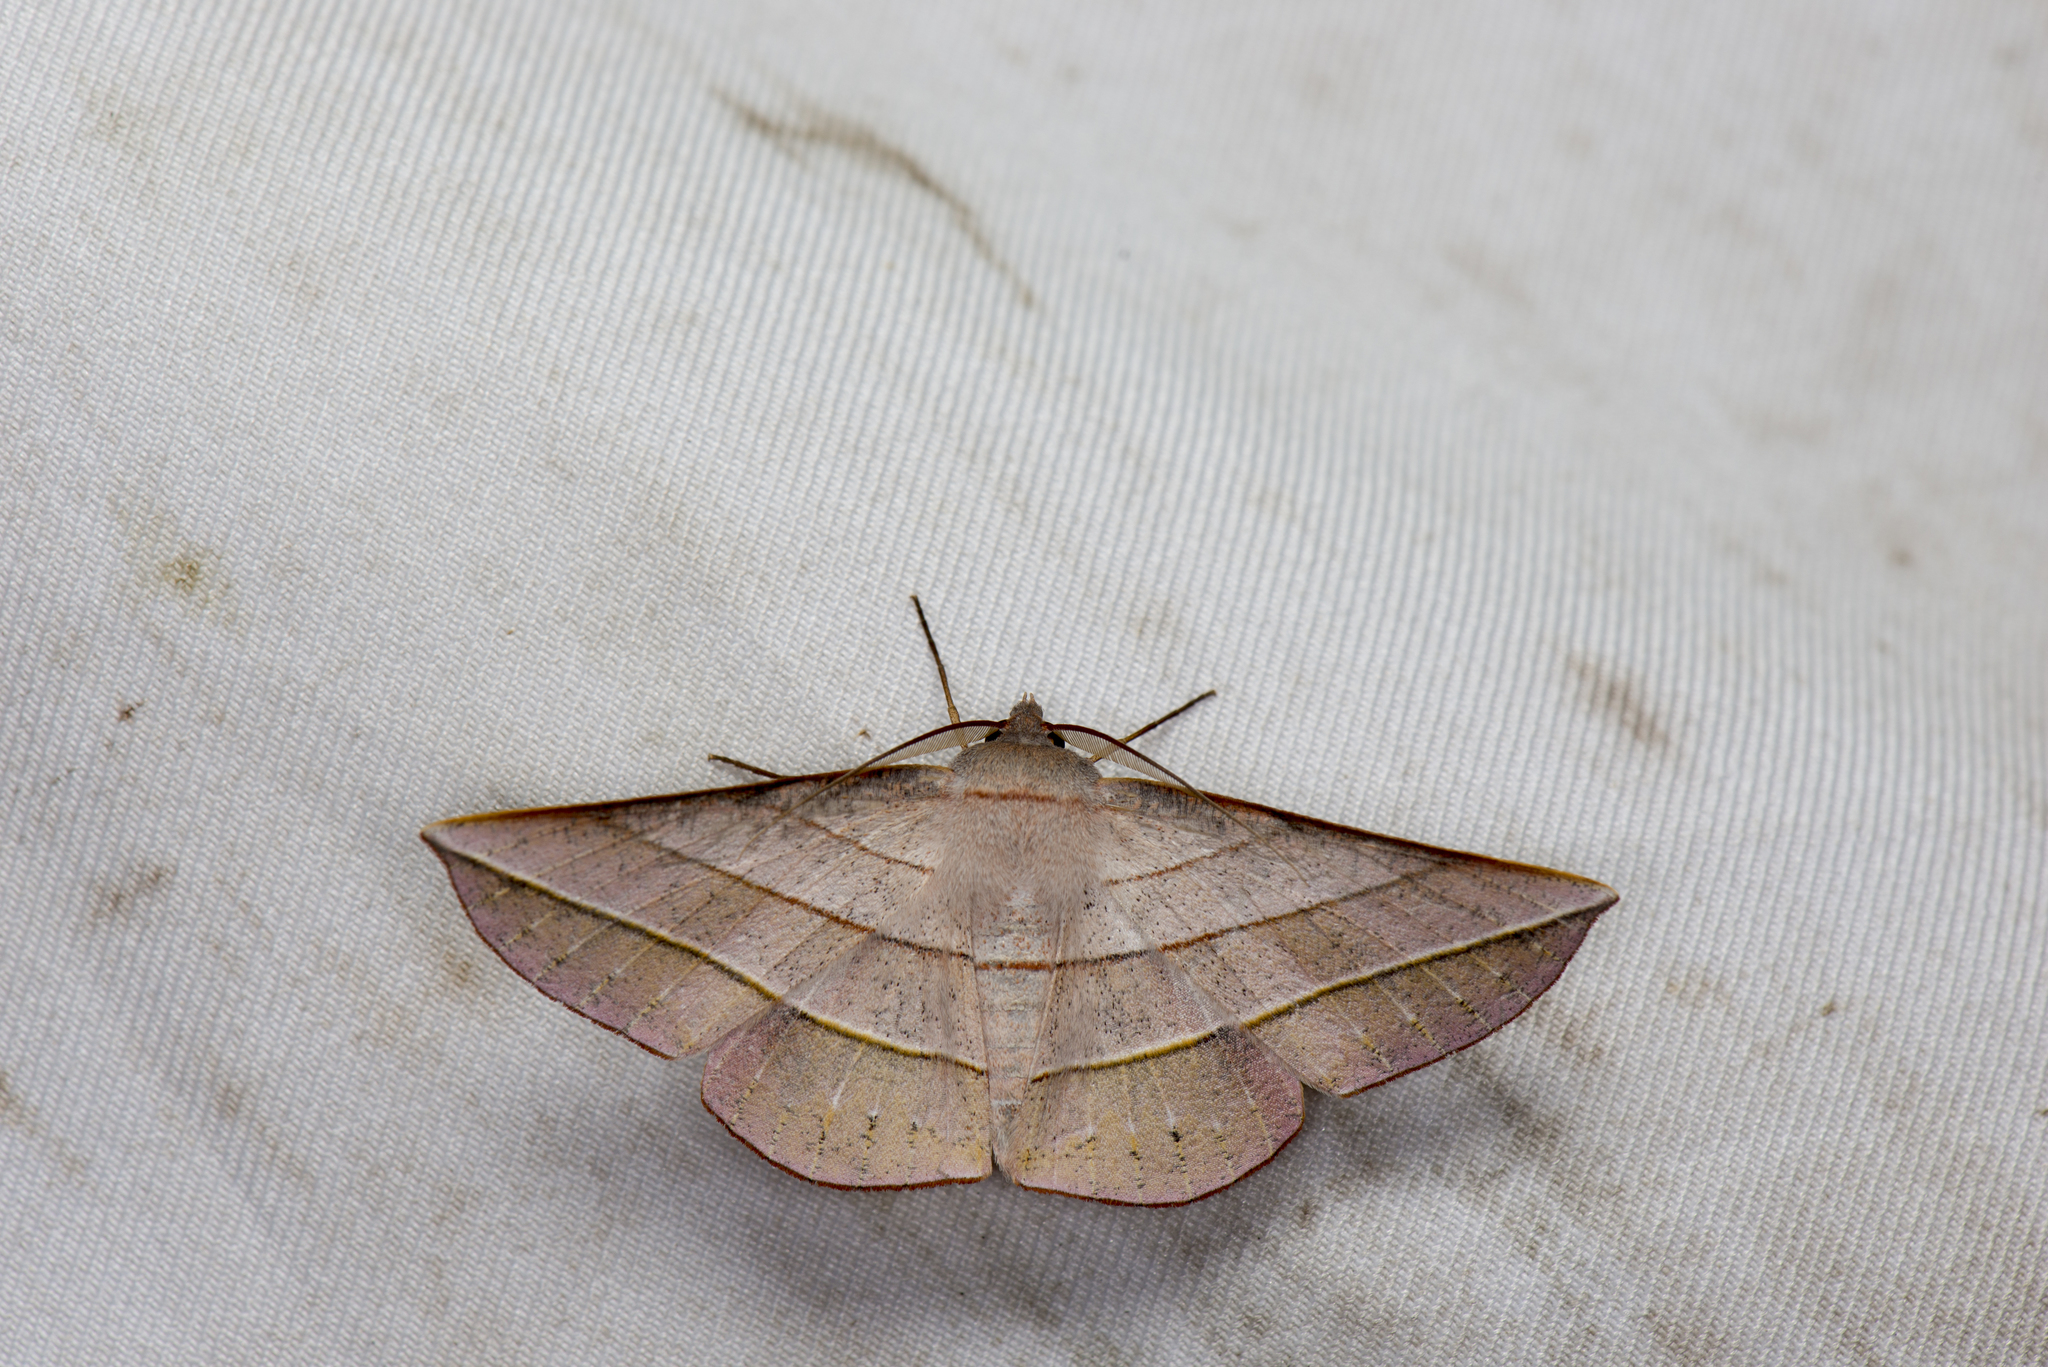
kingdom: Animalia
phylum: Arthropoda
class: Insecta
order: Lepidoptera
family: Geometridae
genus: Sarcinodes
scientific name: Sarcinodes yeni
